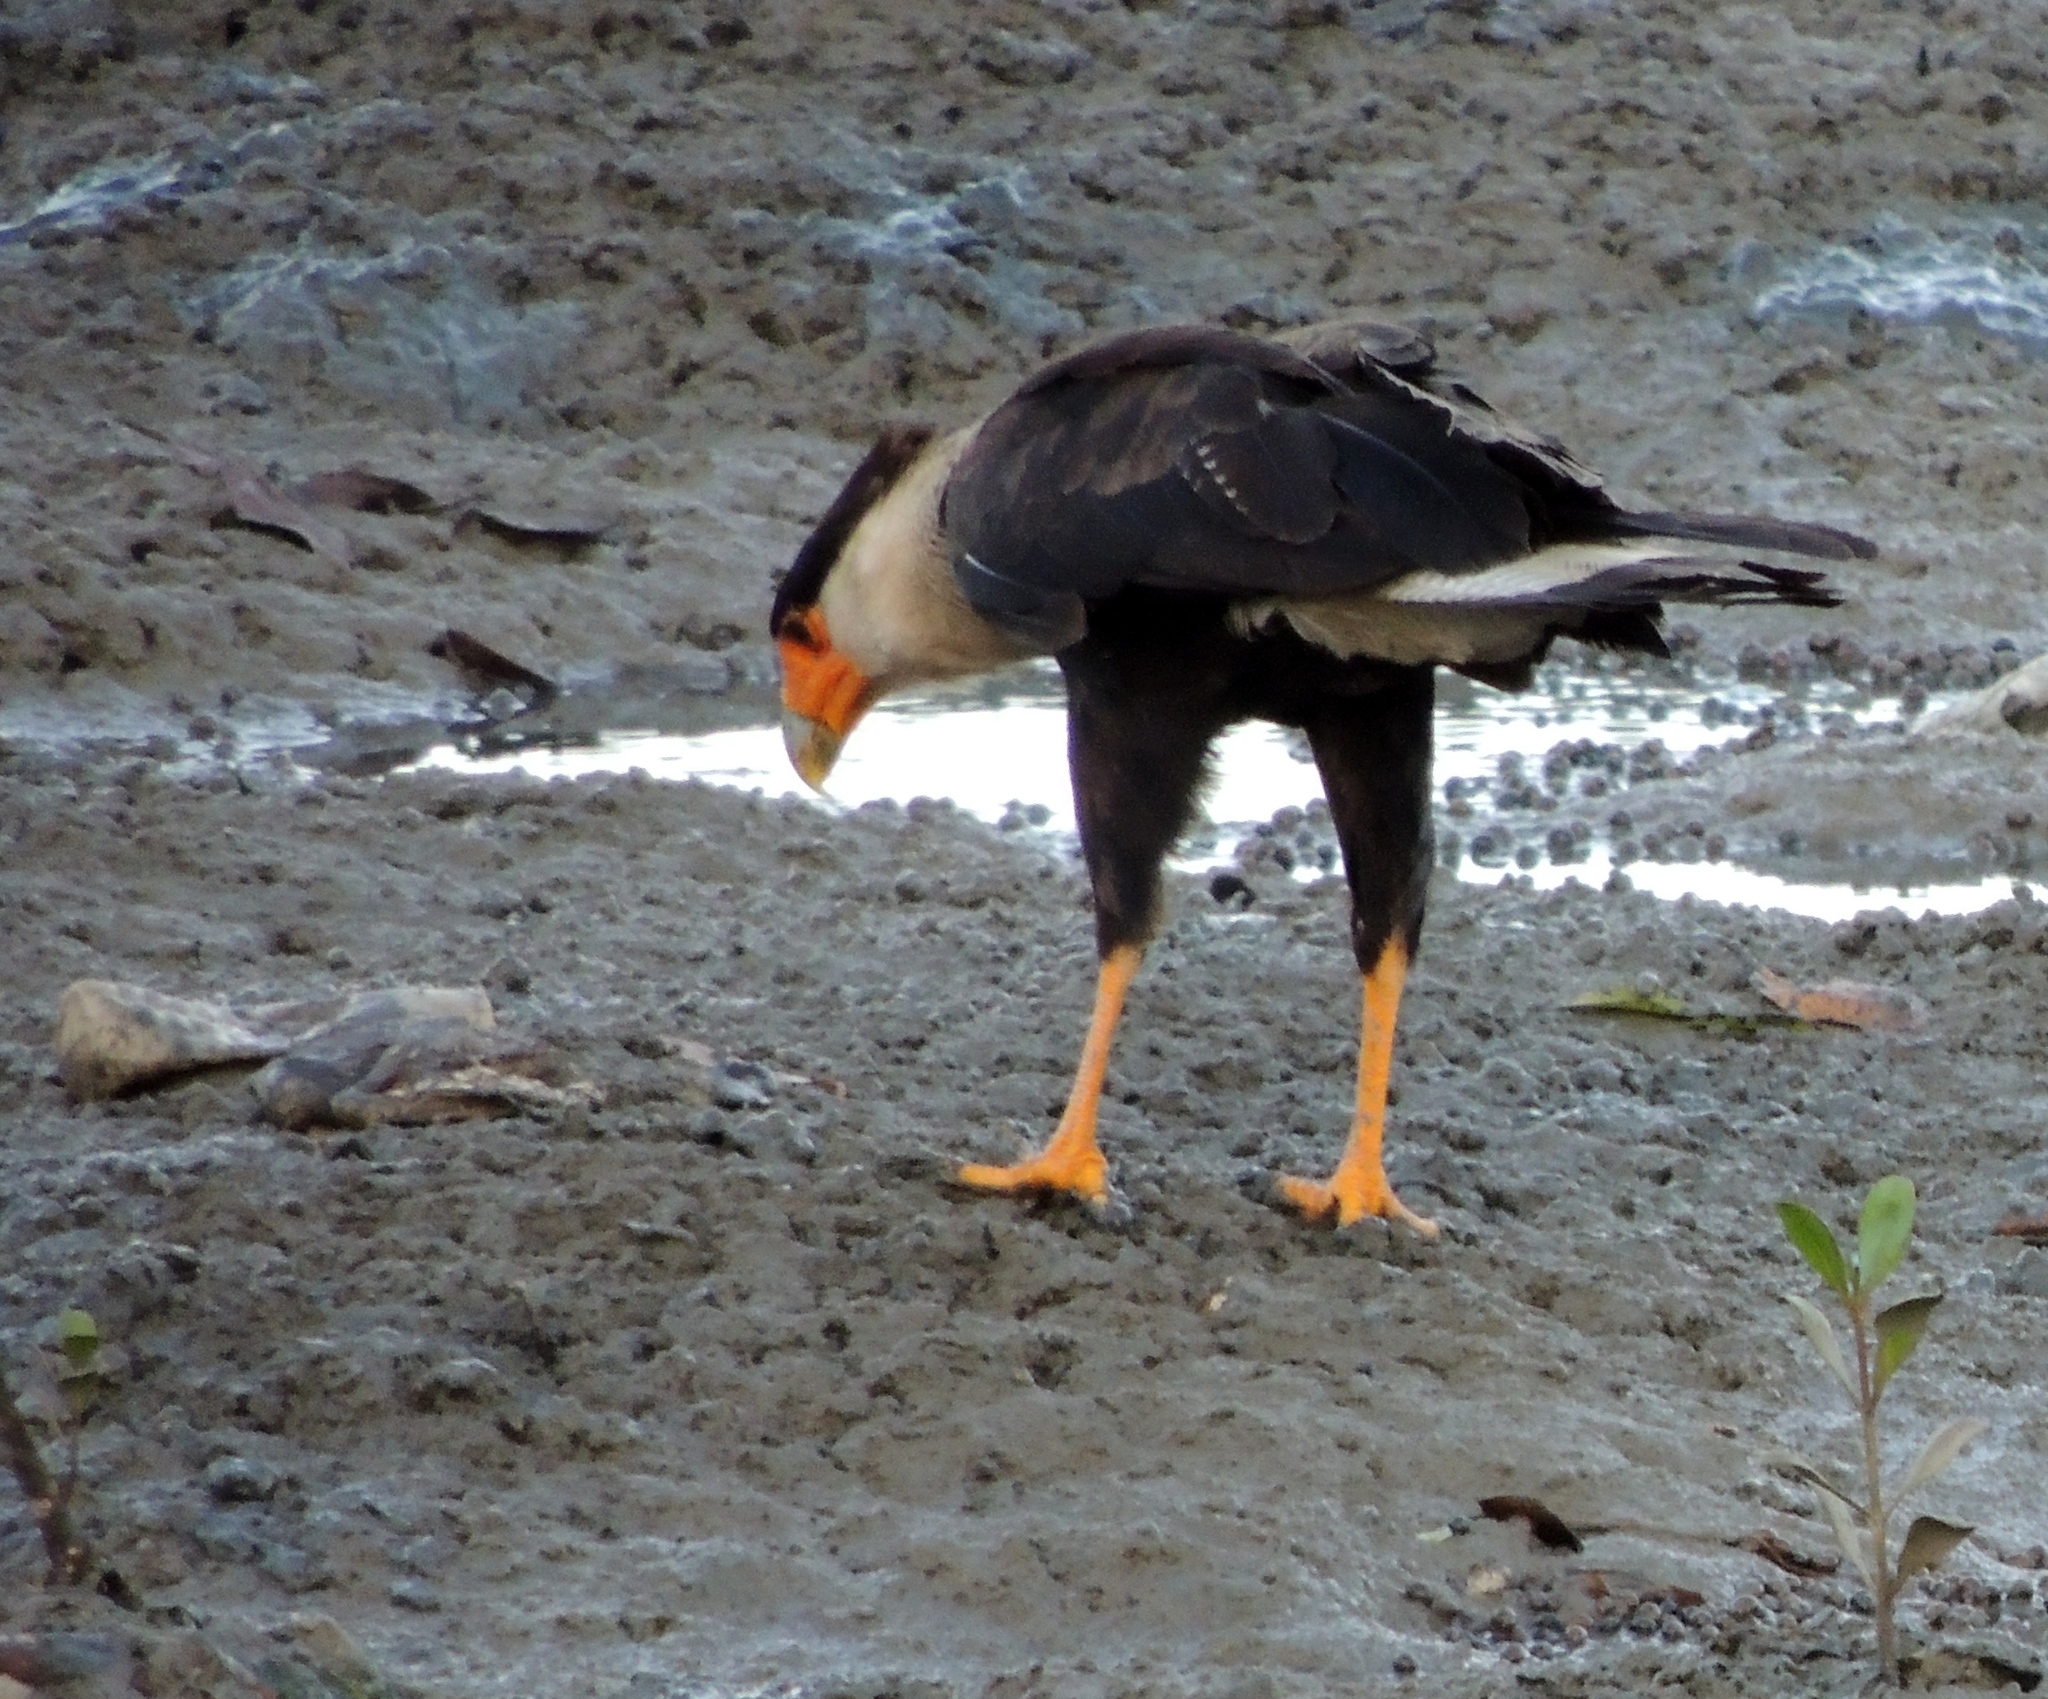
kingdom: Animalia
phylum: Chordata
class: Aves
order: Falconiformes
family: Falconidae
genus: Caracara
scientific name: Caracara plancus
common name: Southern caracara
